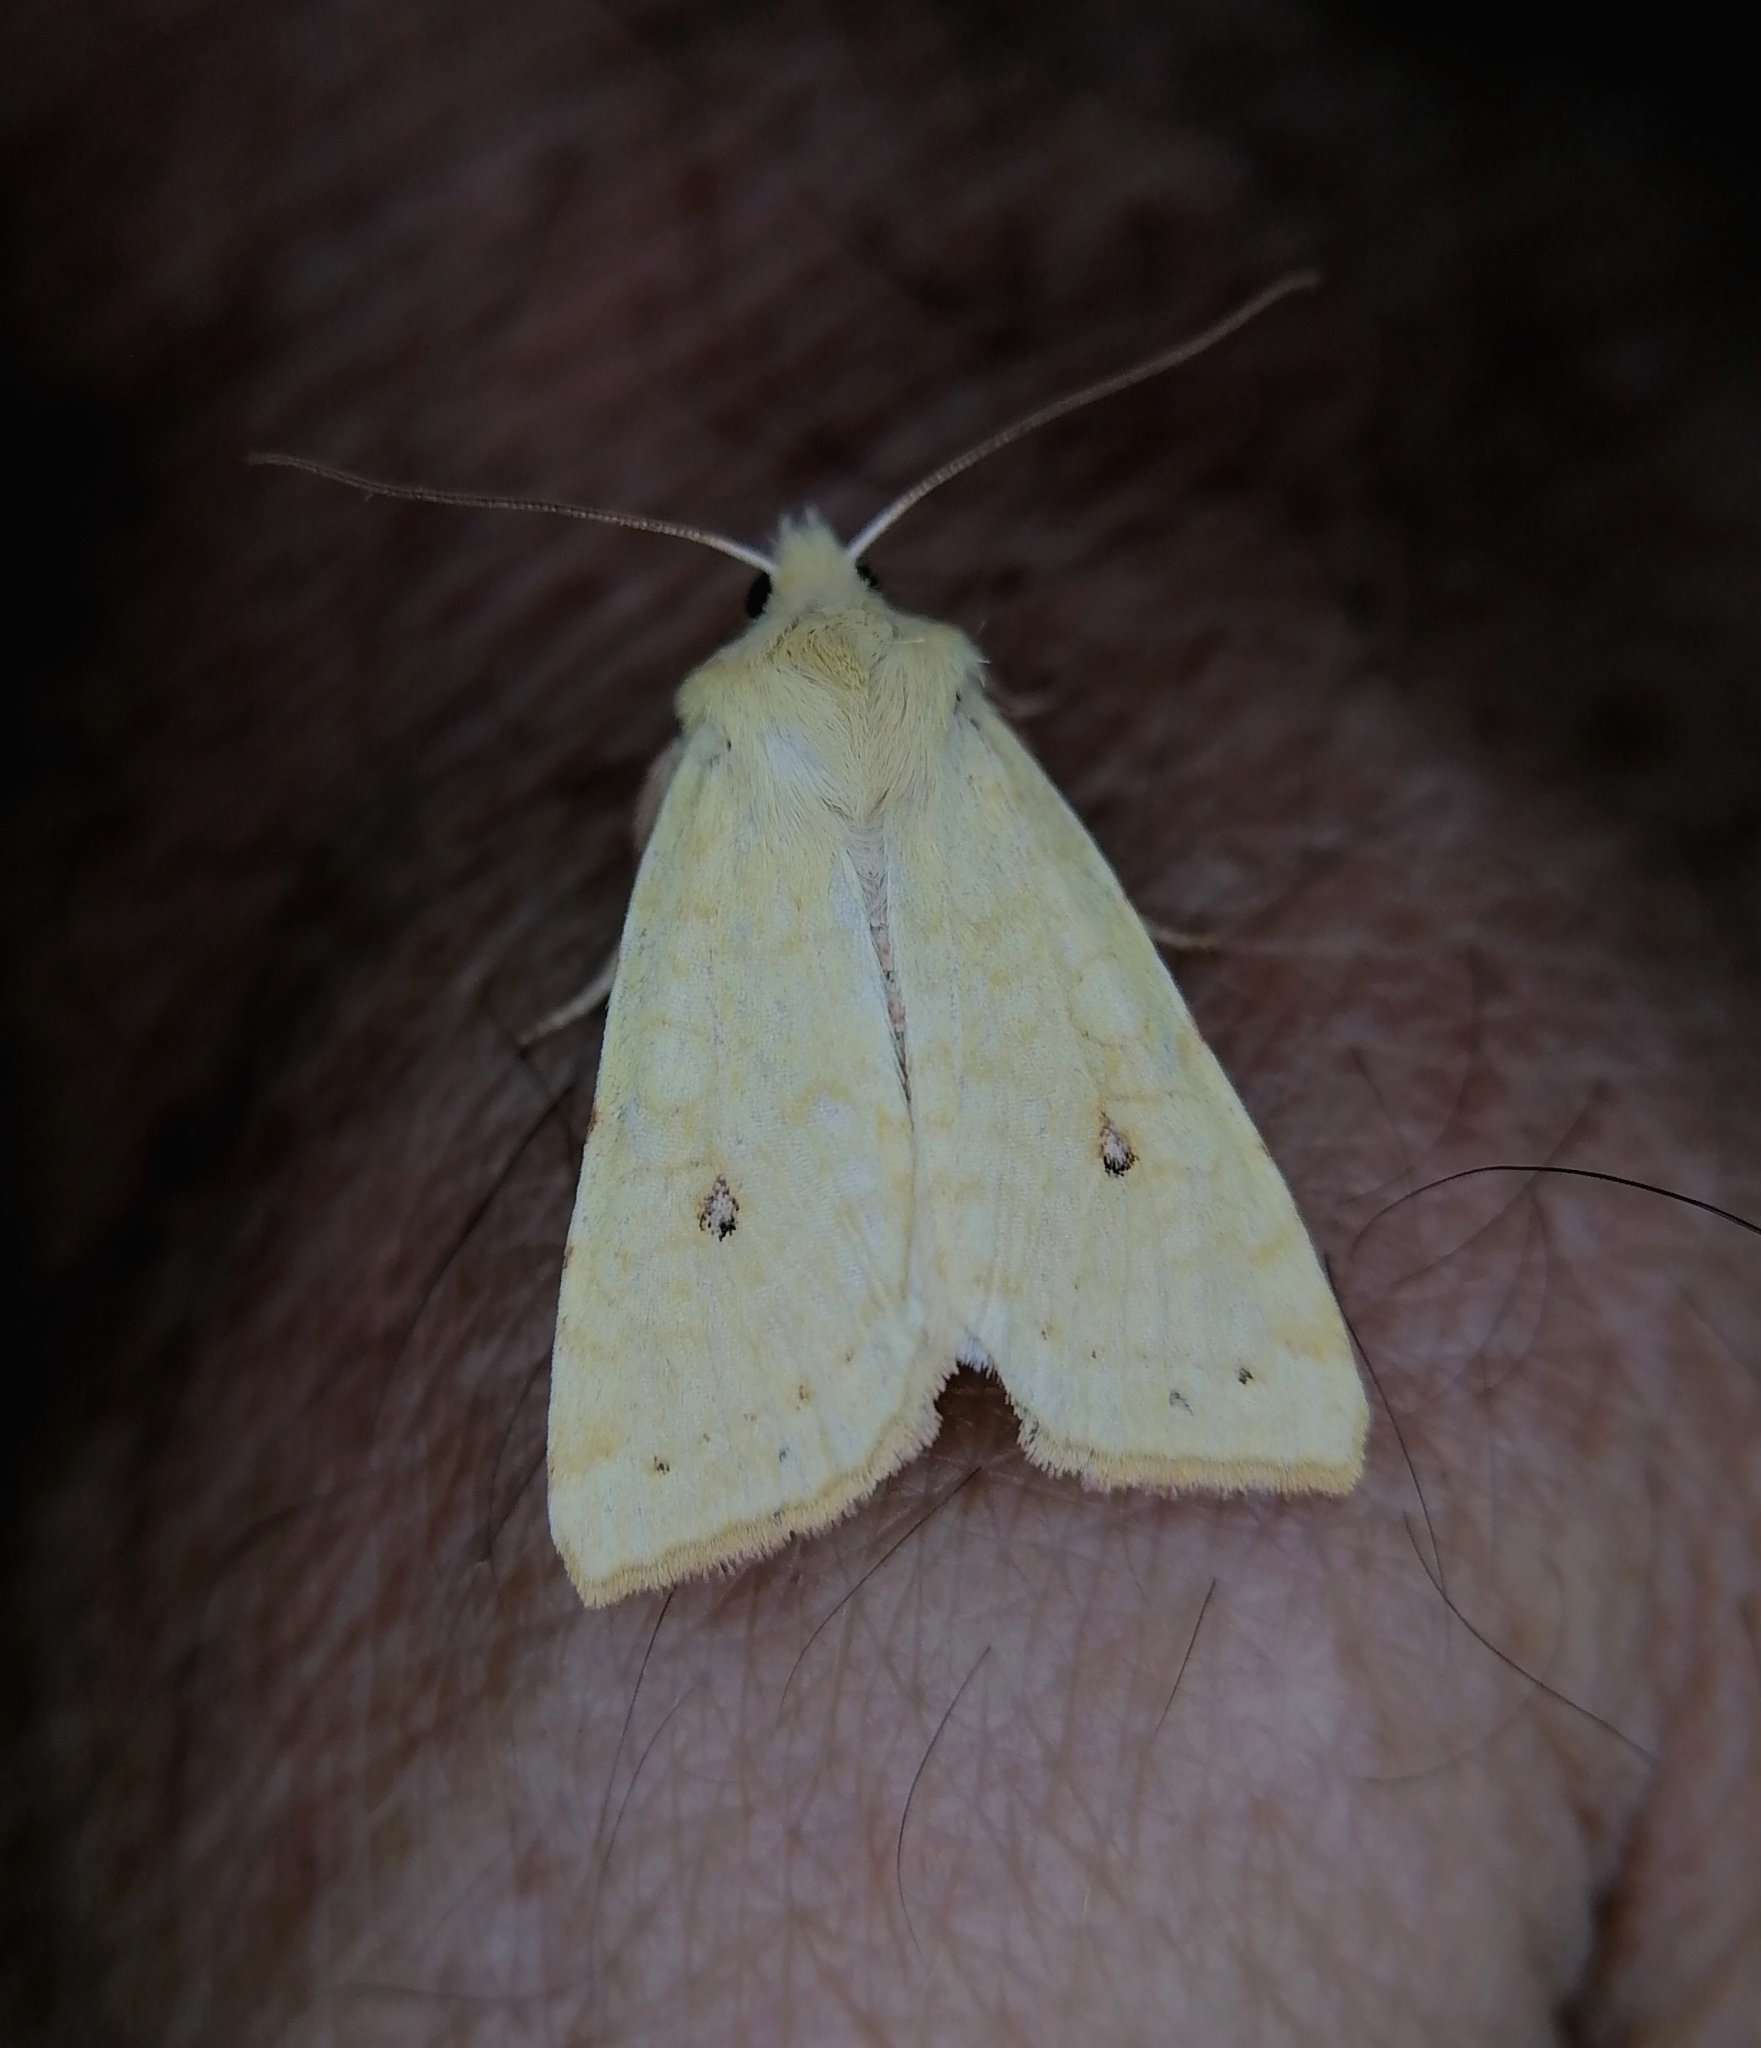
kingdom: Animalia
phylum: Arthropoda
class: Insecta
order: Lepidoptera
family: Noctuidae
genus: Xanthia
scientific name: Xanthia icteritia
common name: The sallow
